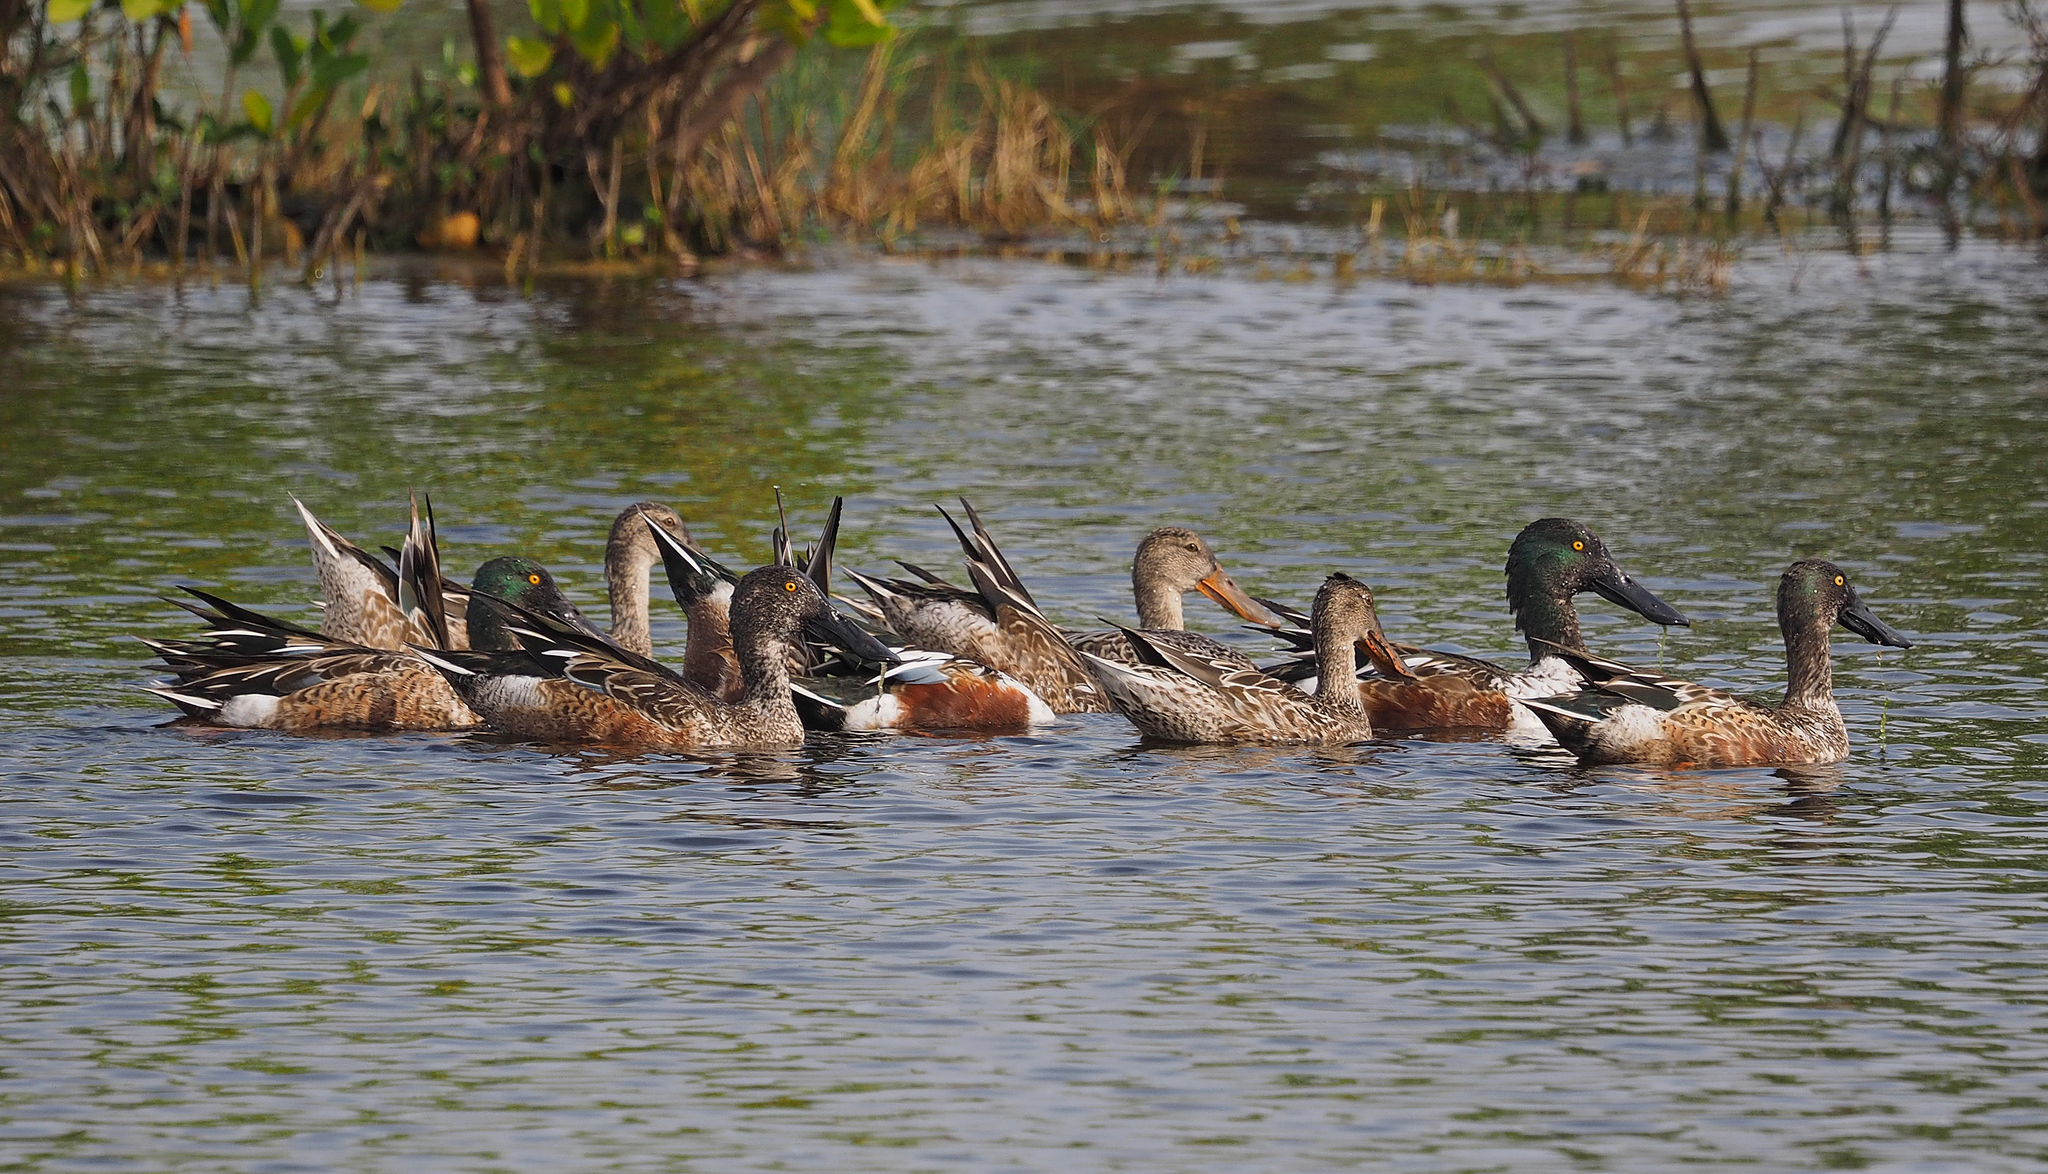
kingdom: Animalia
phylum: Chordata
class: Aves
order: Anseriformes
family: Anatidae
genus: Spatula
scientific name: Spatula clypeata
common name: Northern shoveler
